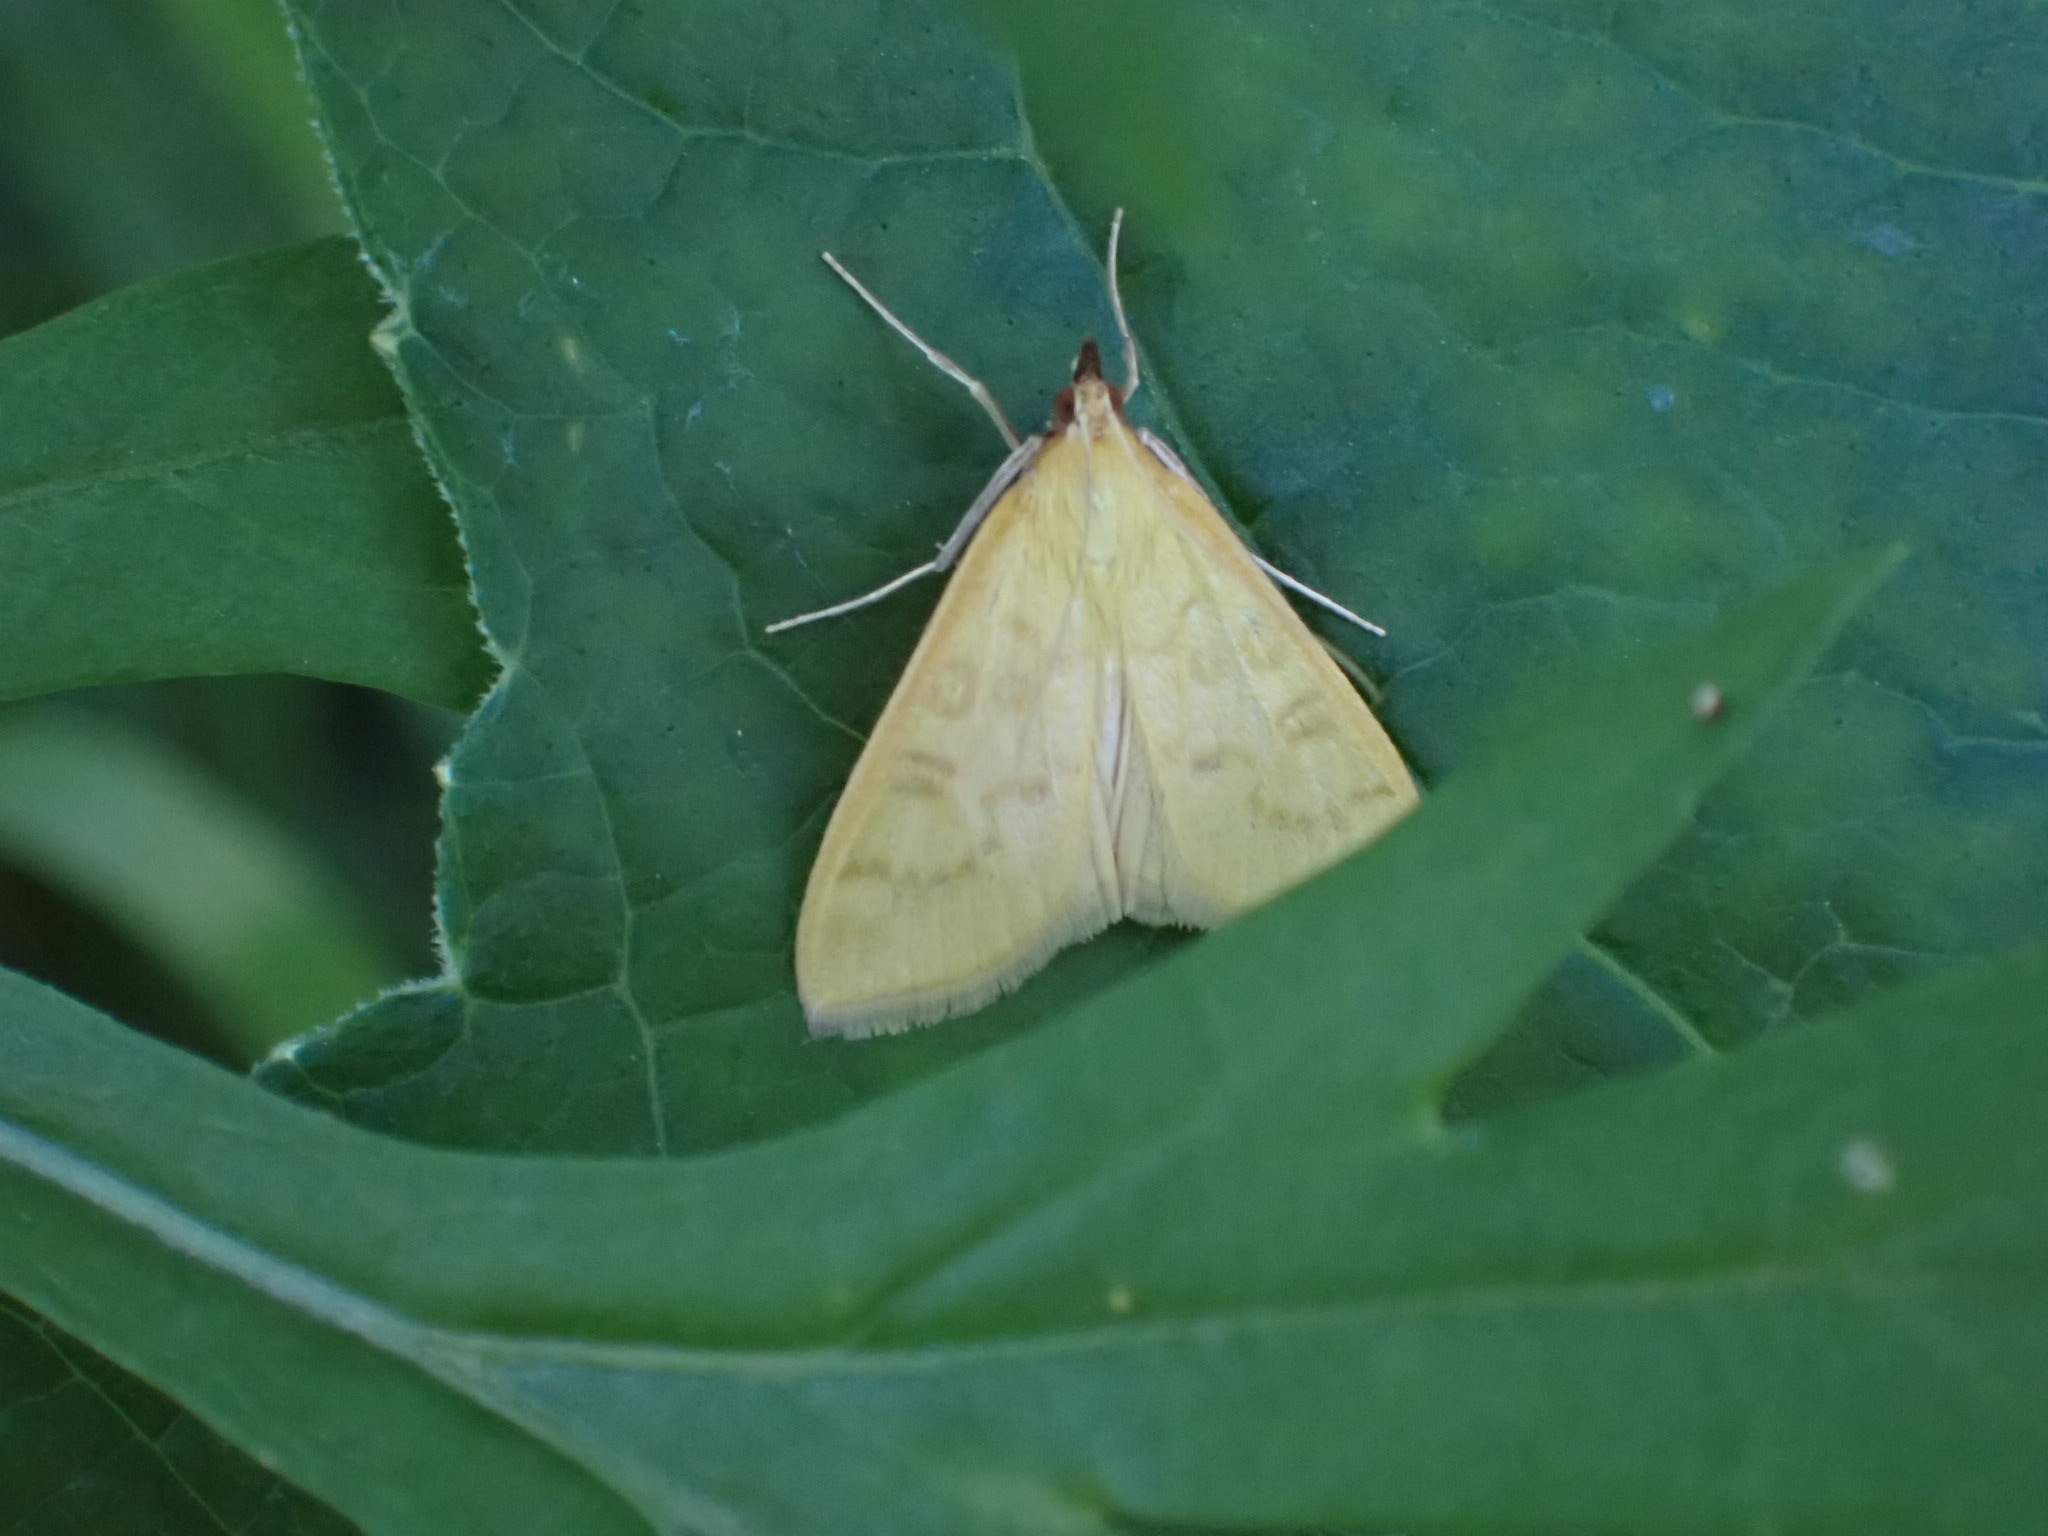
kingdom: Animalia
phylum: Arthropoda
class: Insecta
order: Lepidoptera
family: Crambidae
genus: Mecyna
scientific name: Mecyna flavalis
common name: Yellow pearl
